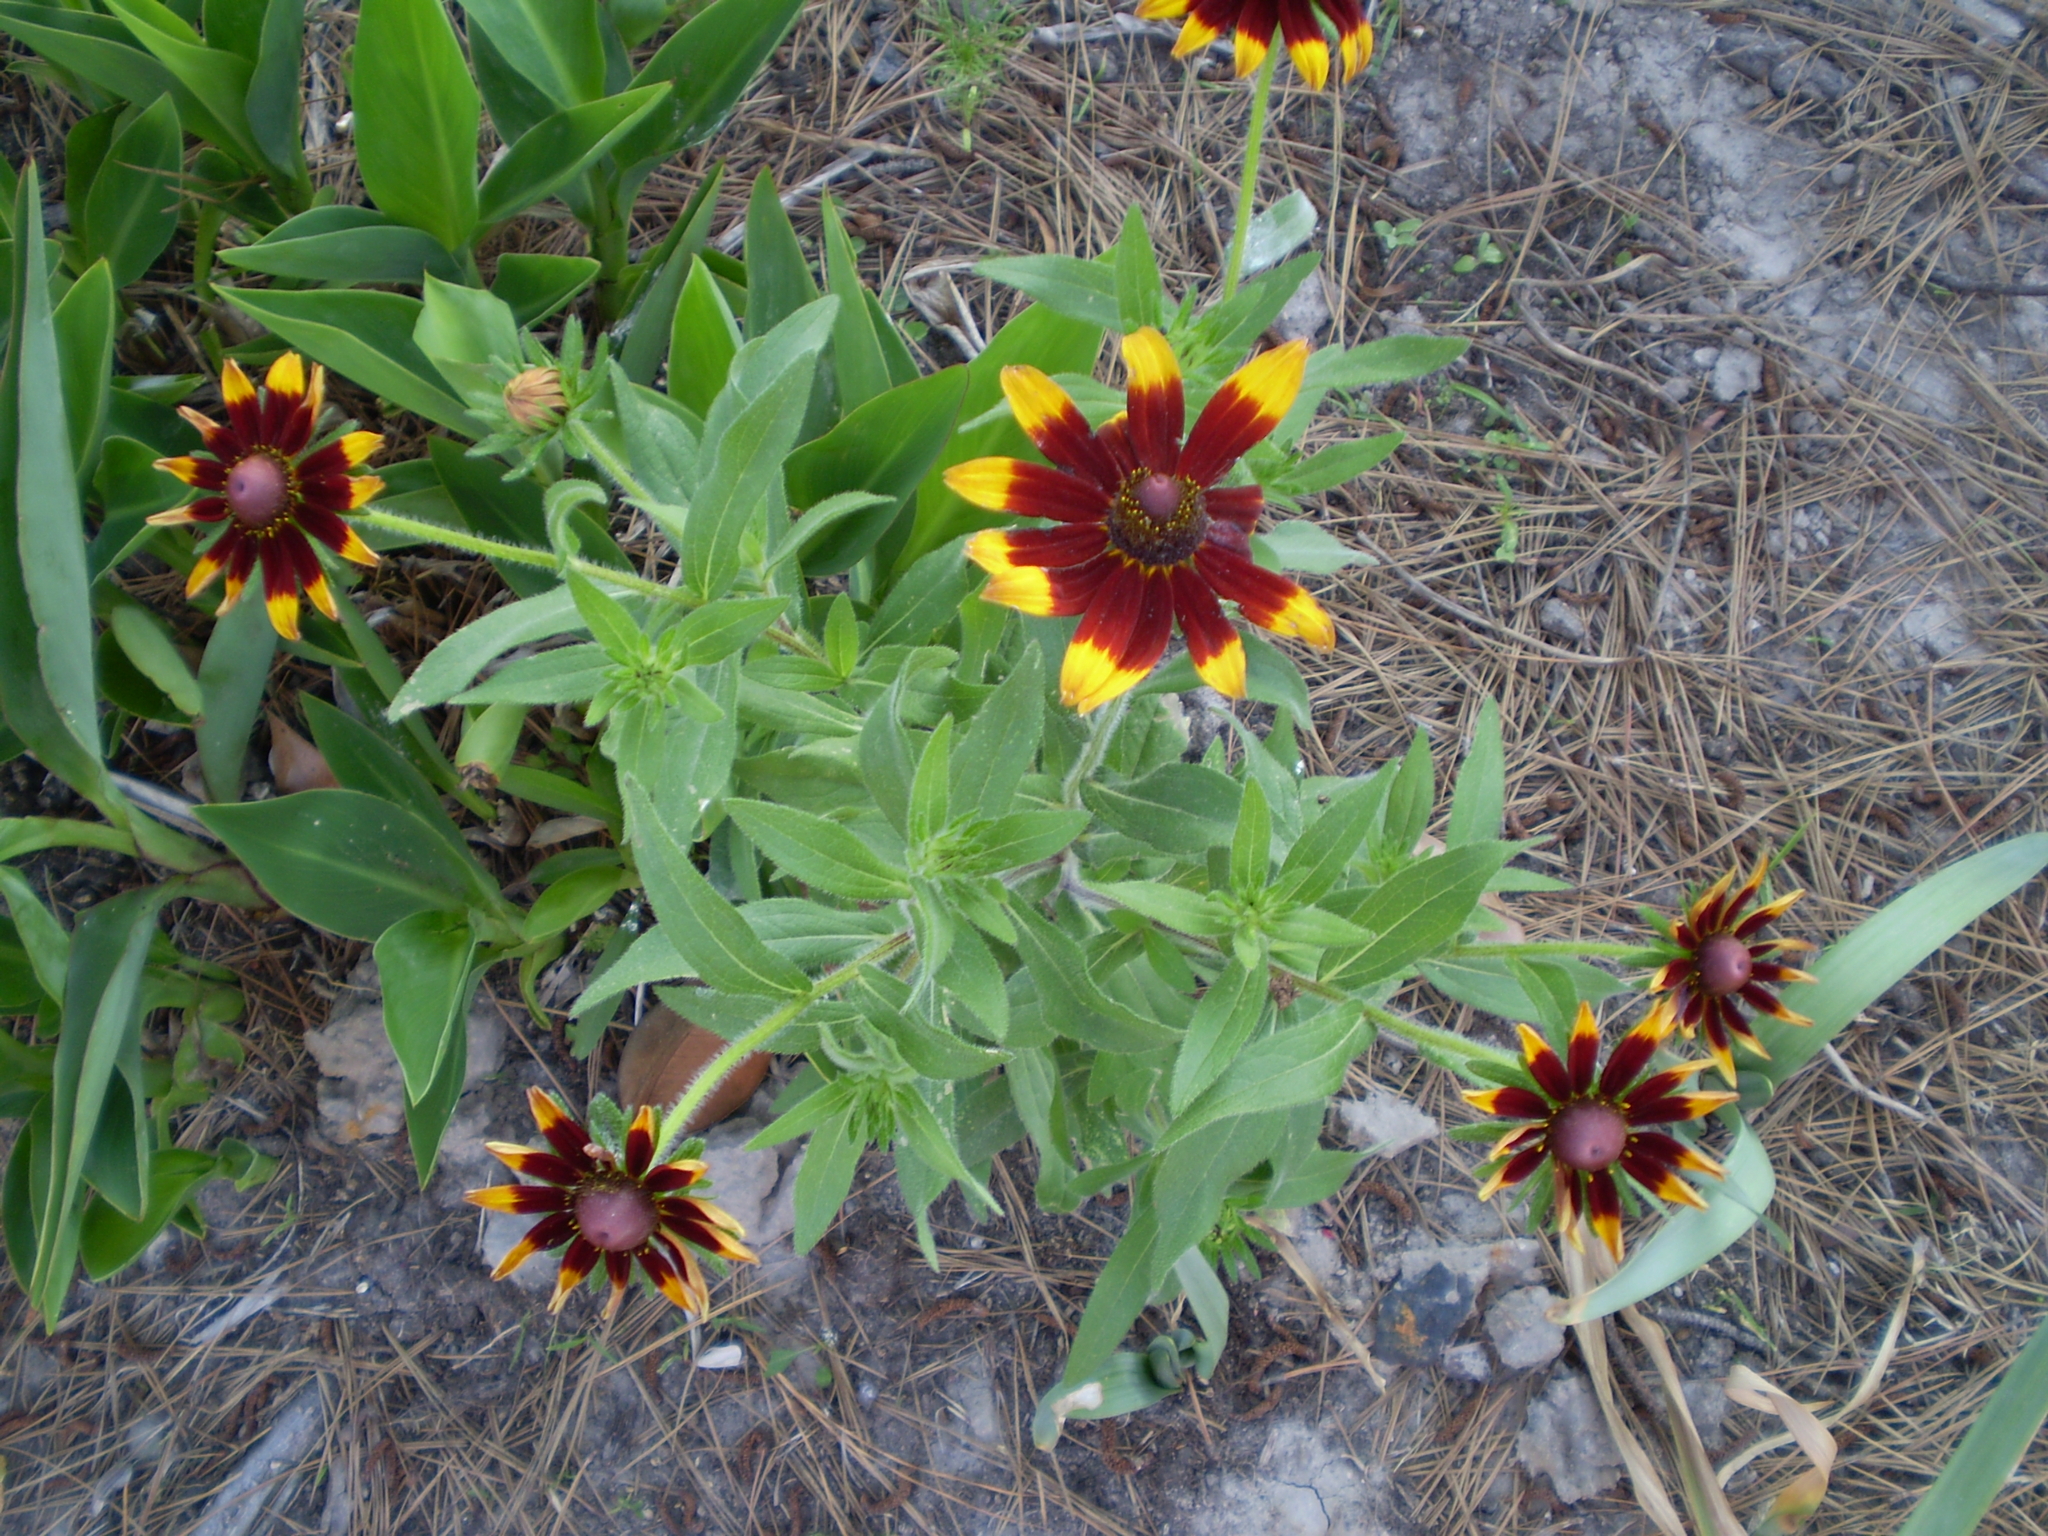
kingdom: Plantae
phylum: Tracheophyta
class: Magnoliopsida
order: Asterales
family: Asteraceae
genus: Rudbeckia
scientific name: Rudbeckia hirta
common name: Black-eyed-susan
